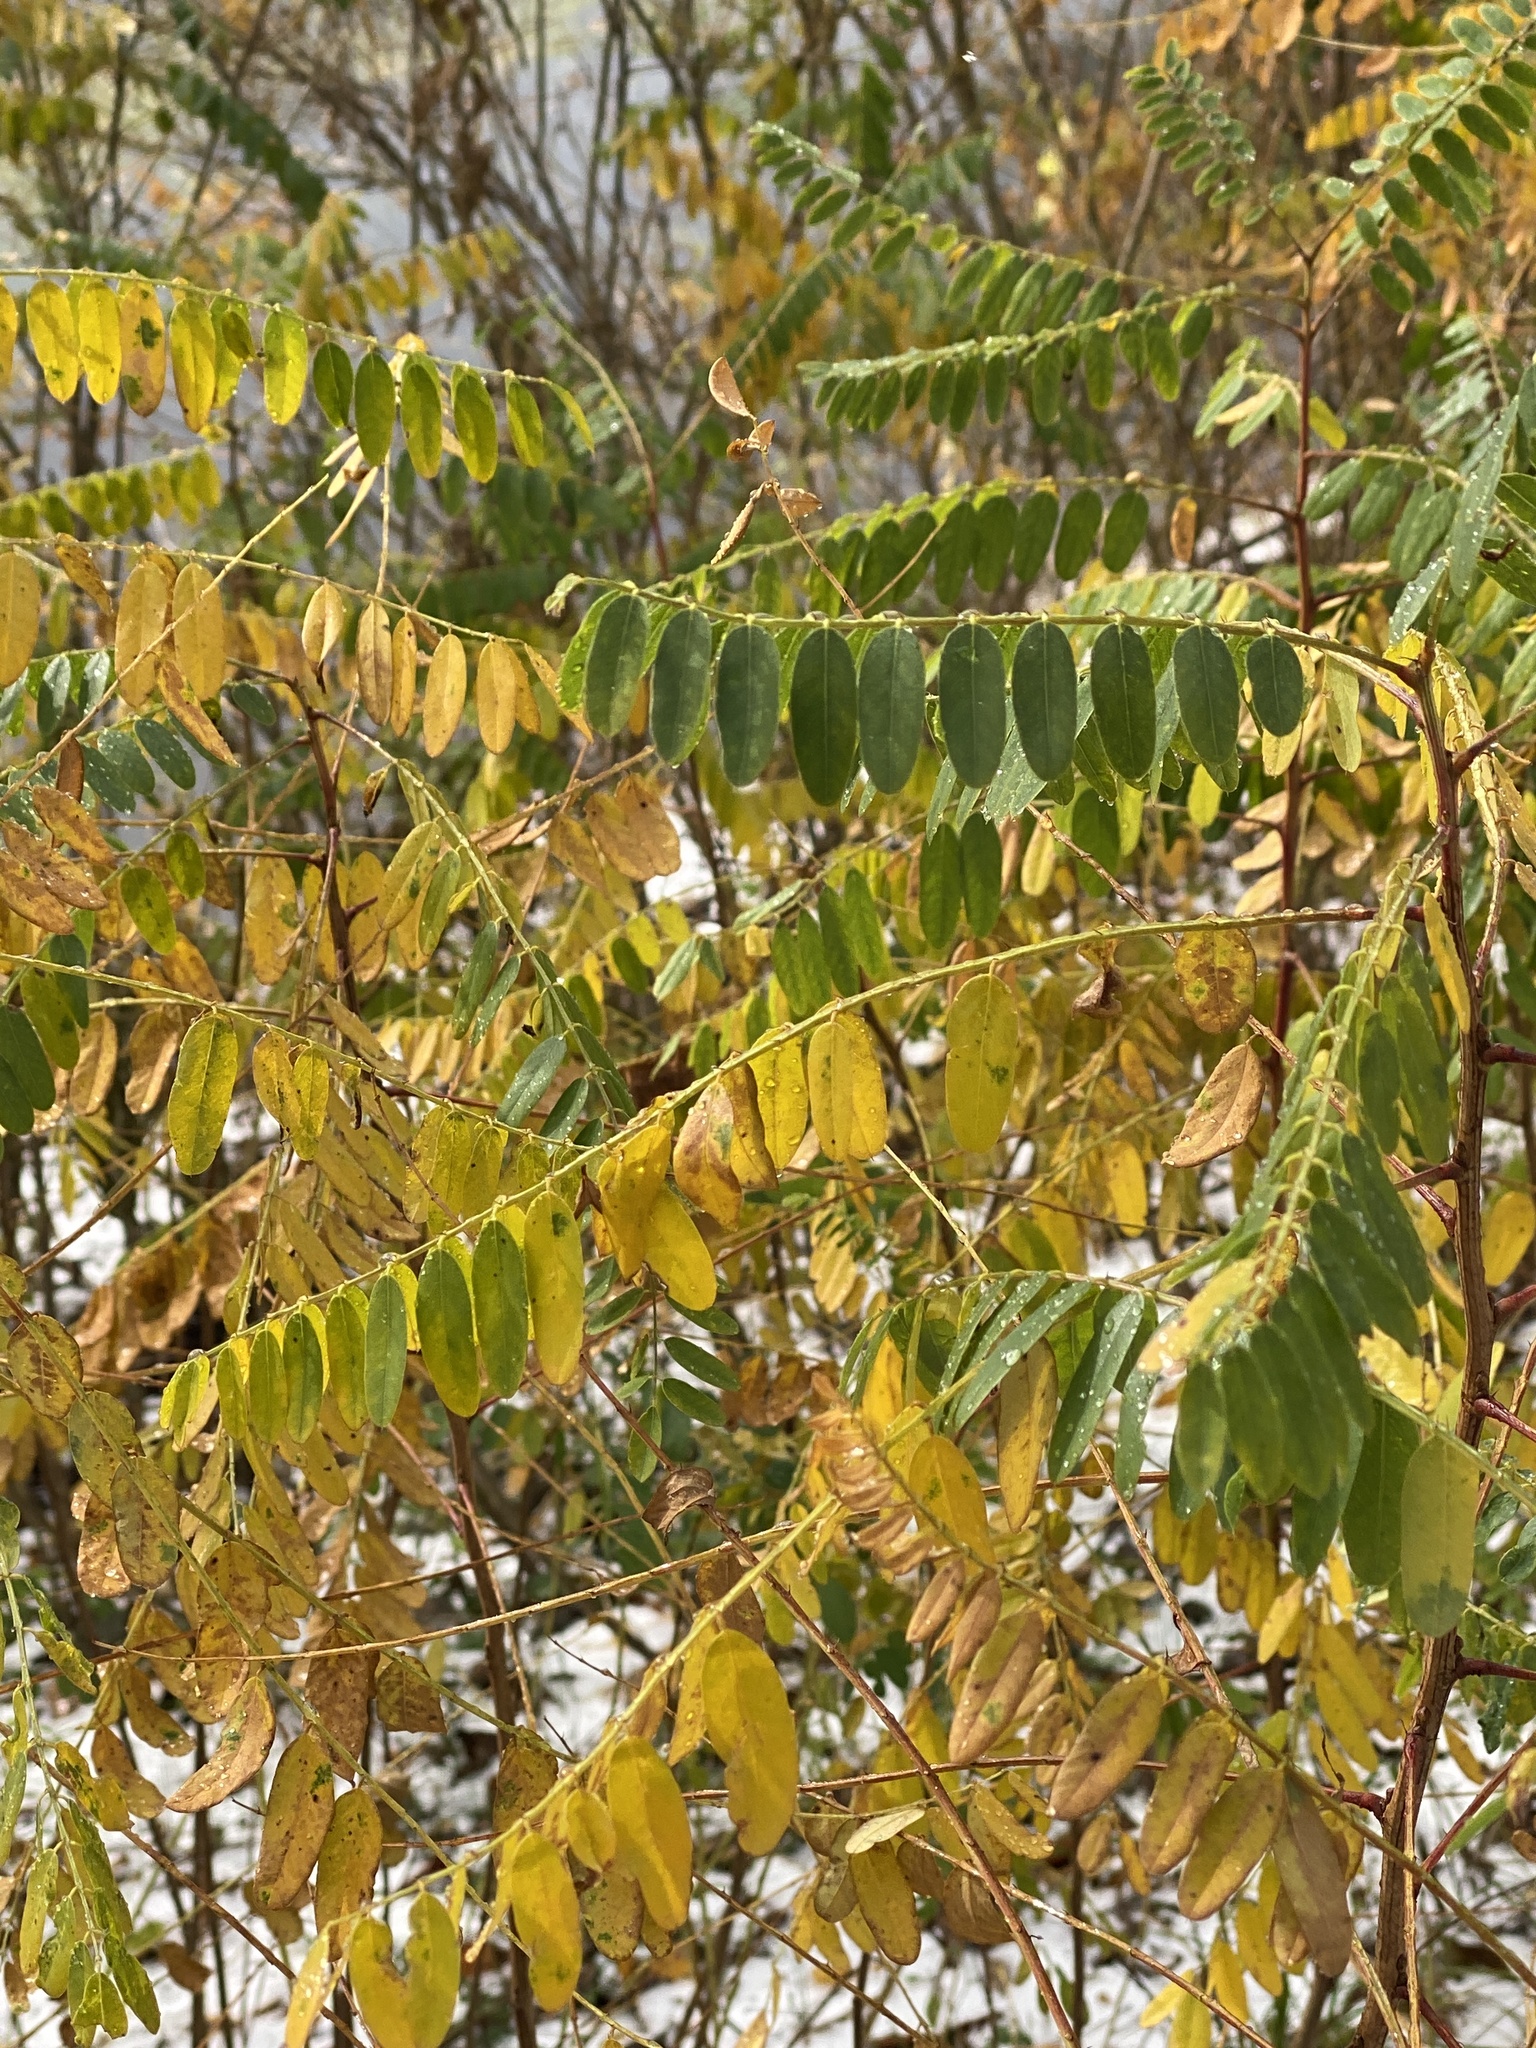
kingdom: Plantae
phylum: Tracheophyta
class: Magnoliopsida
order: Fabales
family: Fabaceae
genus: Amorpha
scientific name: Amorpha fruticosa
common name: False indigo
